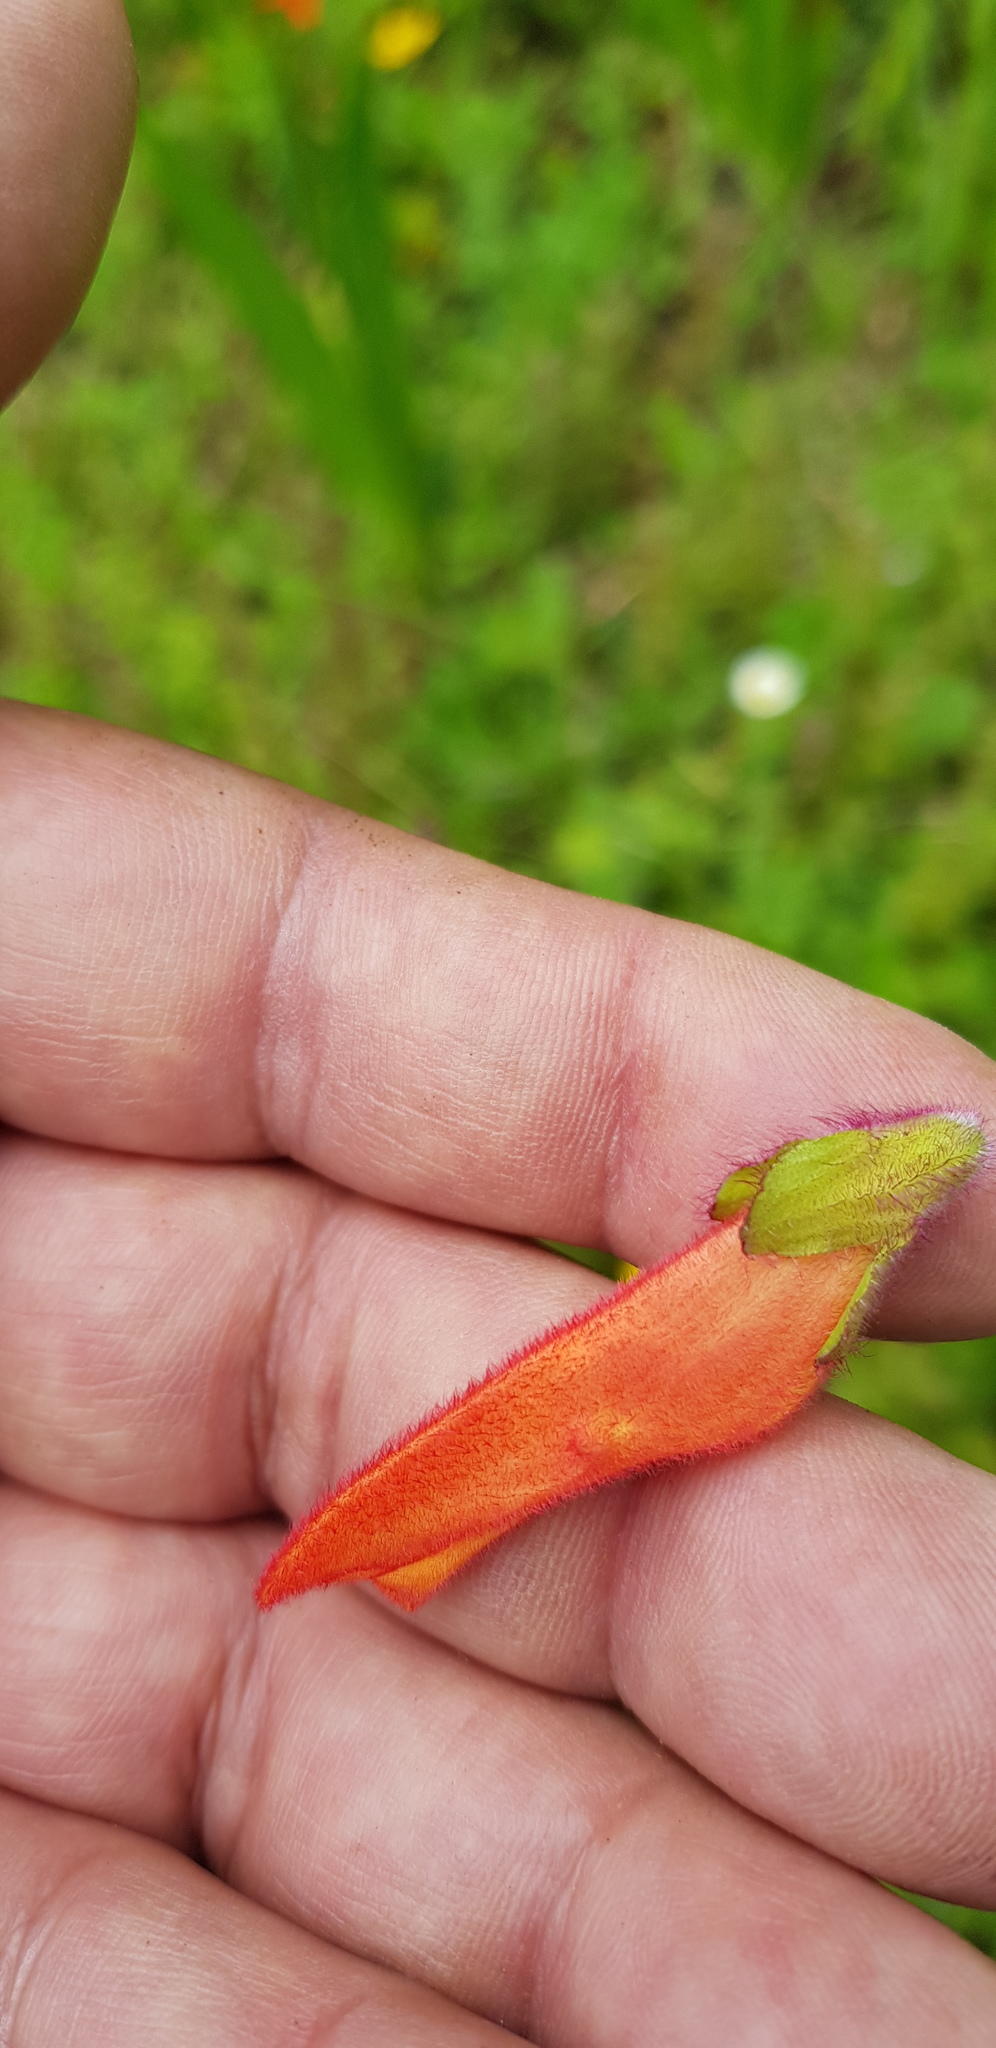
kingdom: Plantae
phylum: Tracheophyta
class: Magnoliopsida
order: Lamiales
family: Orobanchaceae
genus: Lamourouxia
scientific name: Lamourouxia macrantha
